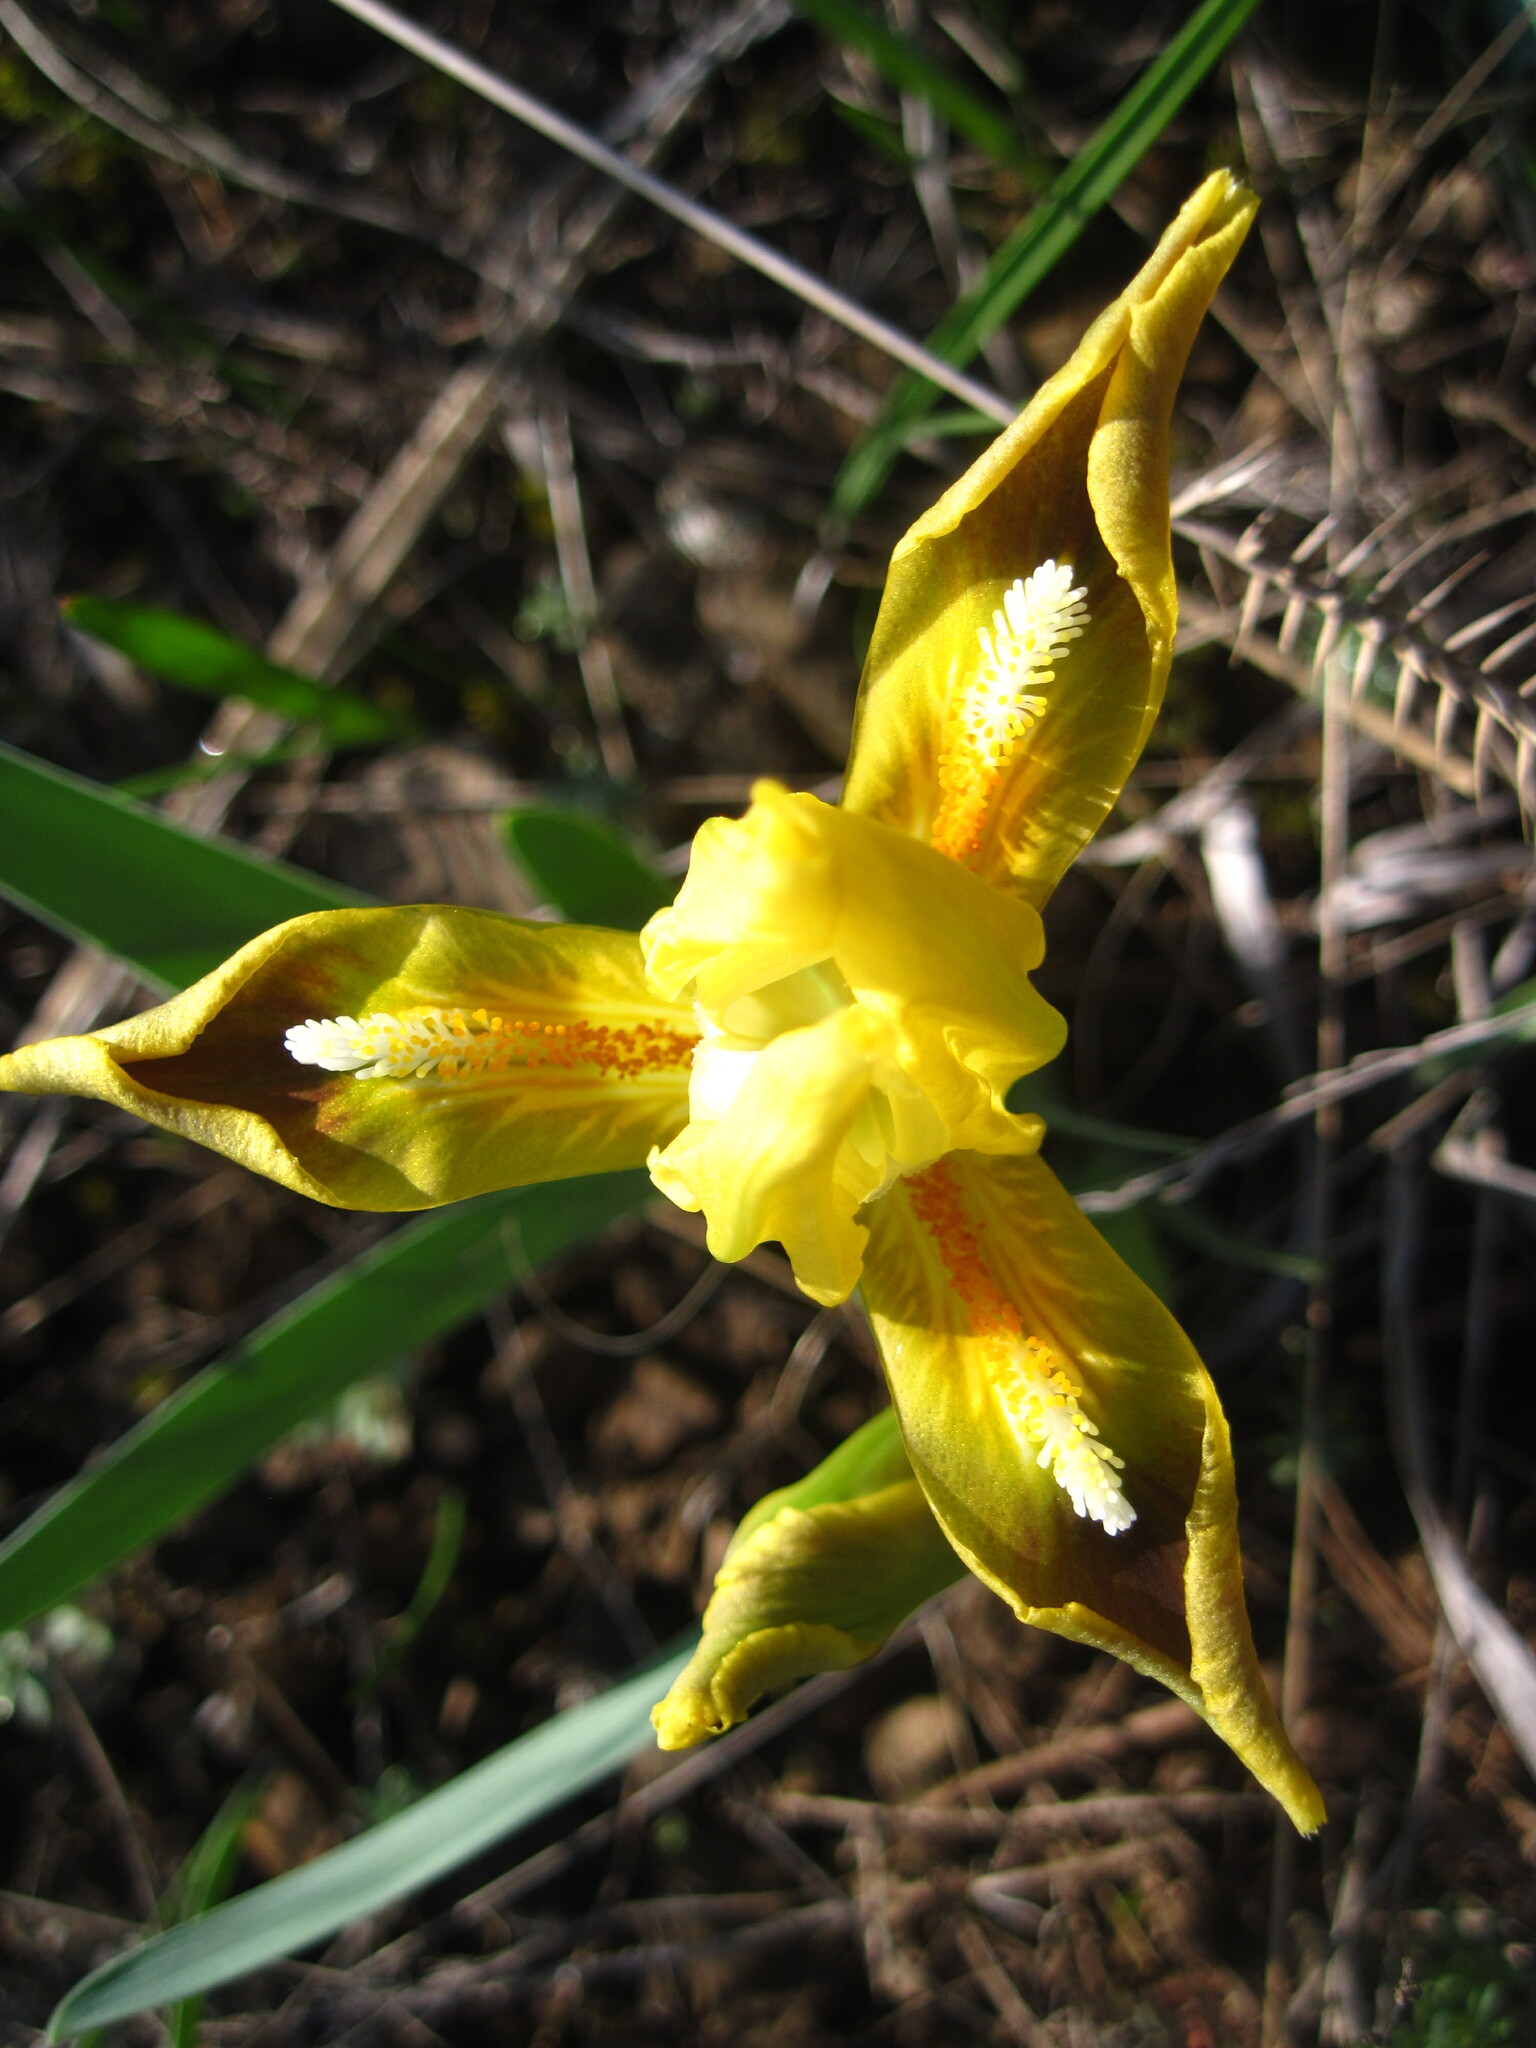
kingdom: Plantae
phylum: Tracheophyta
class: Liliopsida
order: Asparagales
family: Iridaceae
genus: Iris
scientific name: Iris pumila
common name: Dwarf iris
